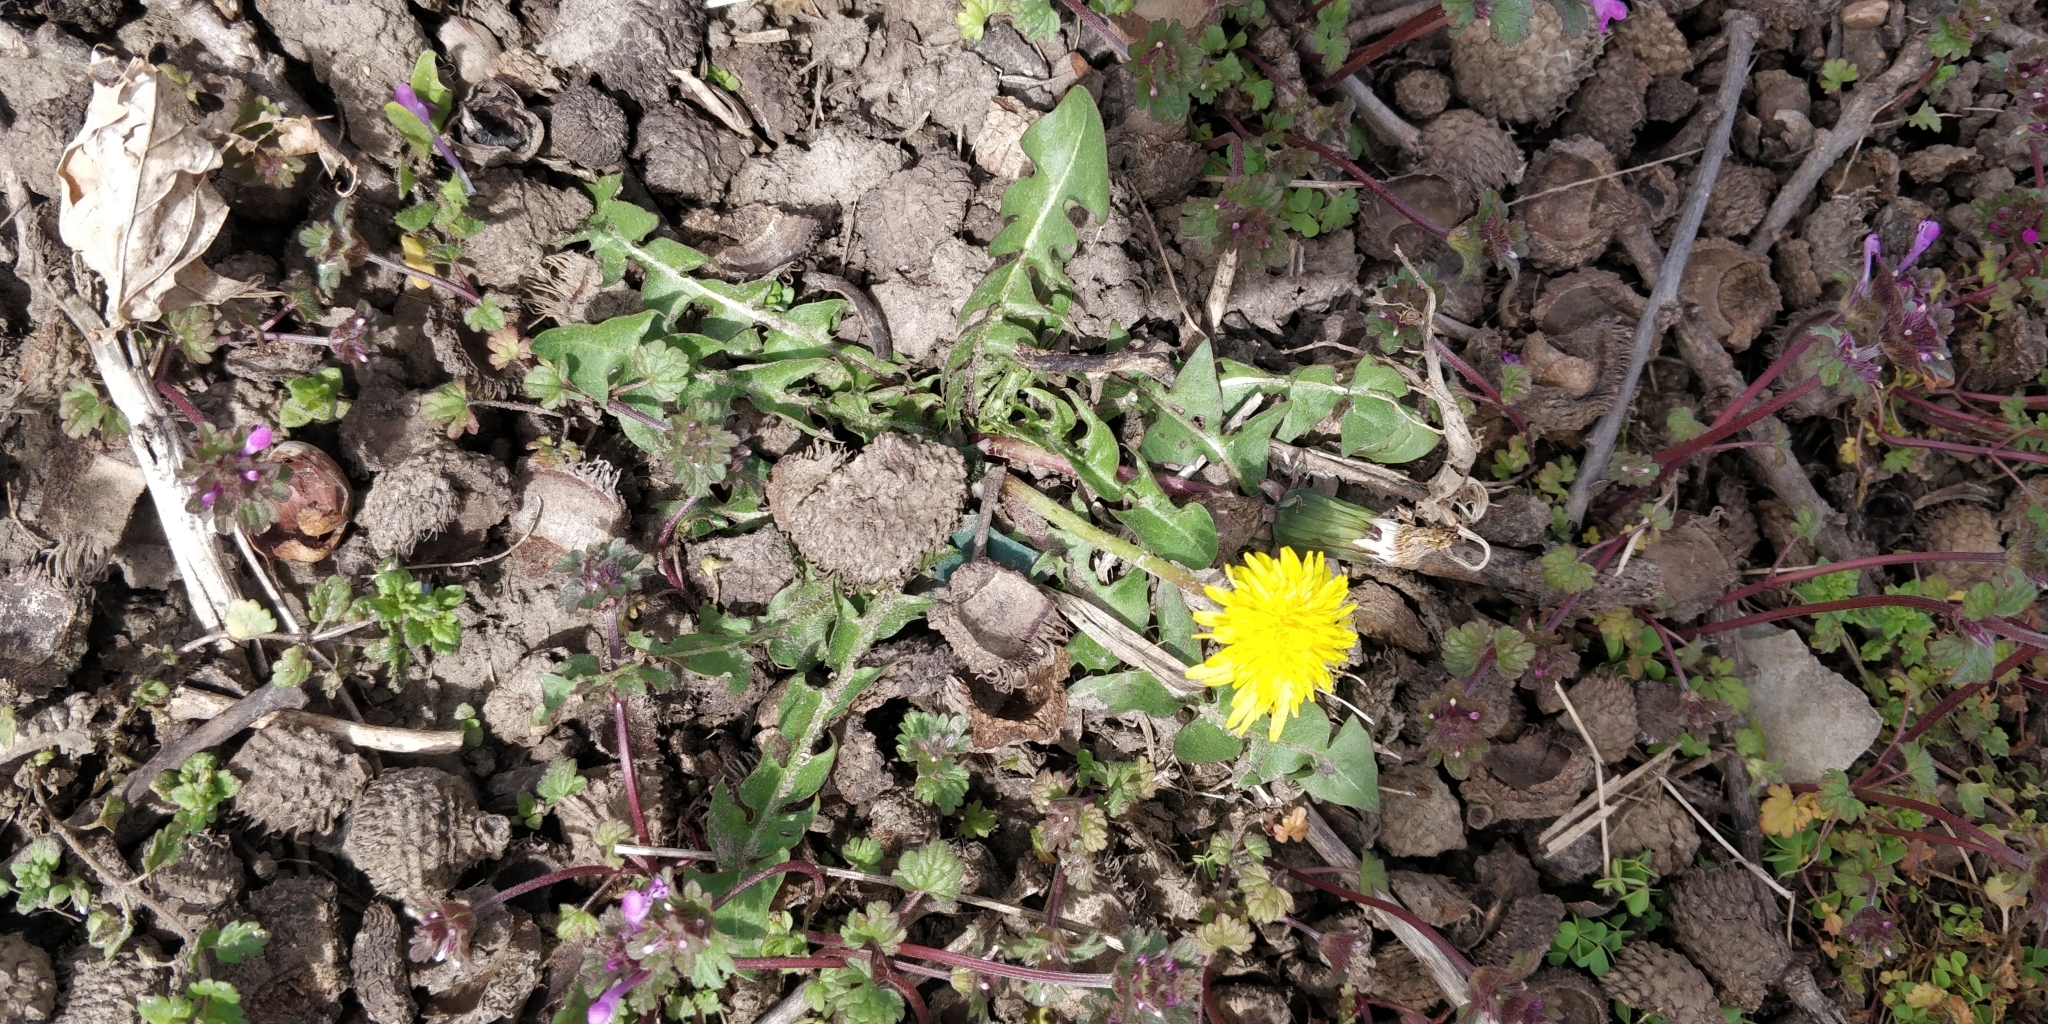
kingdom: Plantae
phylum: Tracheophyta
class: Magnoliopsida
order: Asterales
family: Asteraceae
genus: Taraxacum
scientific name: Taraxacum officinale
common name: Common dandelion
